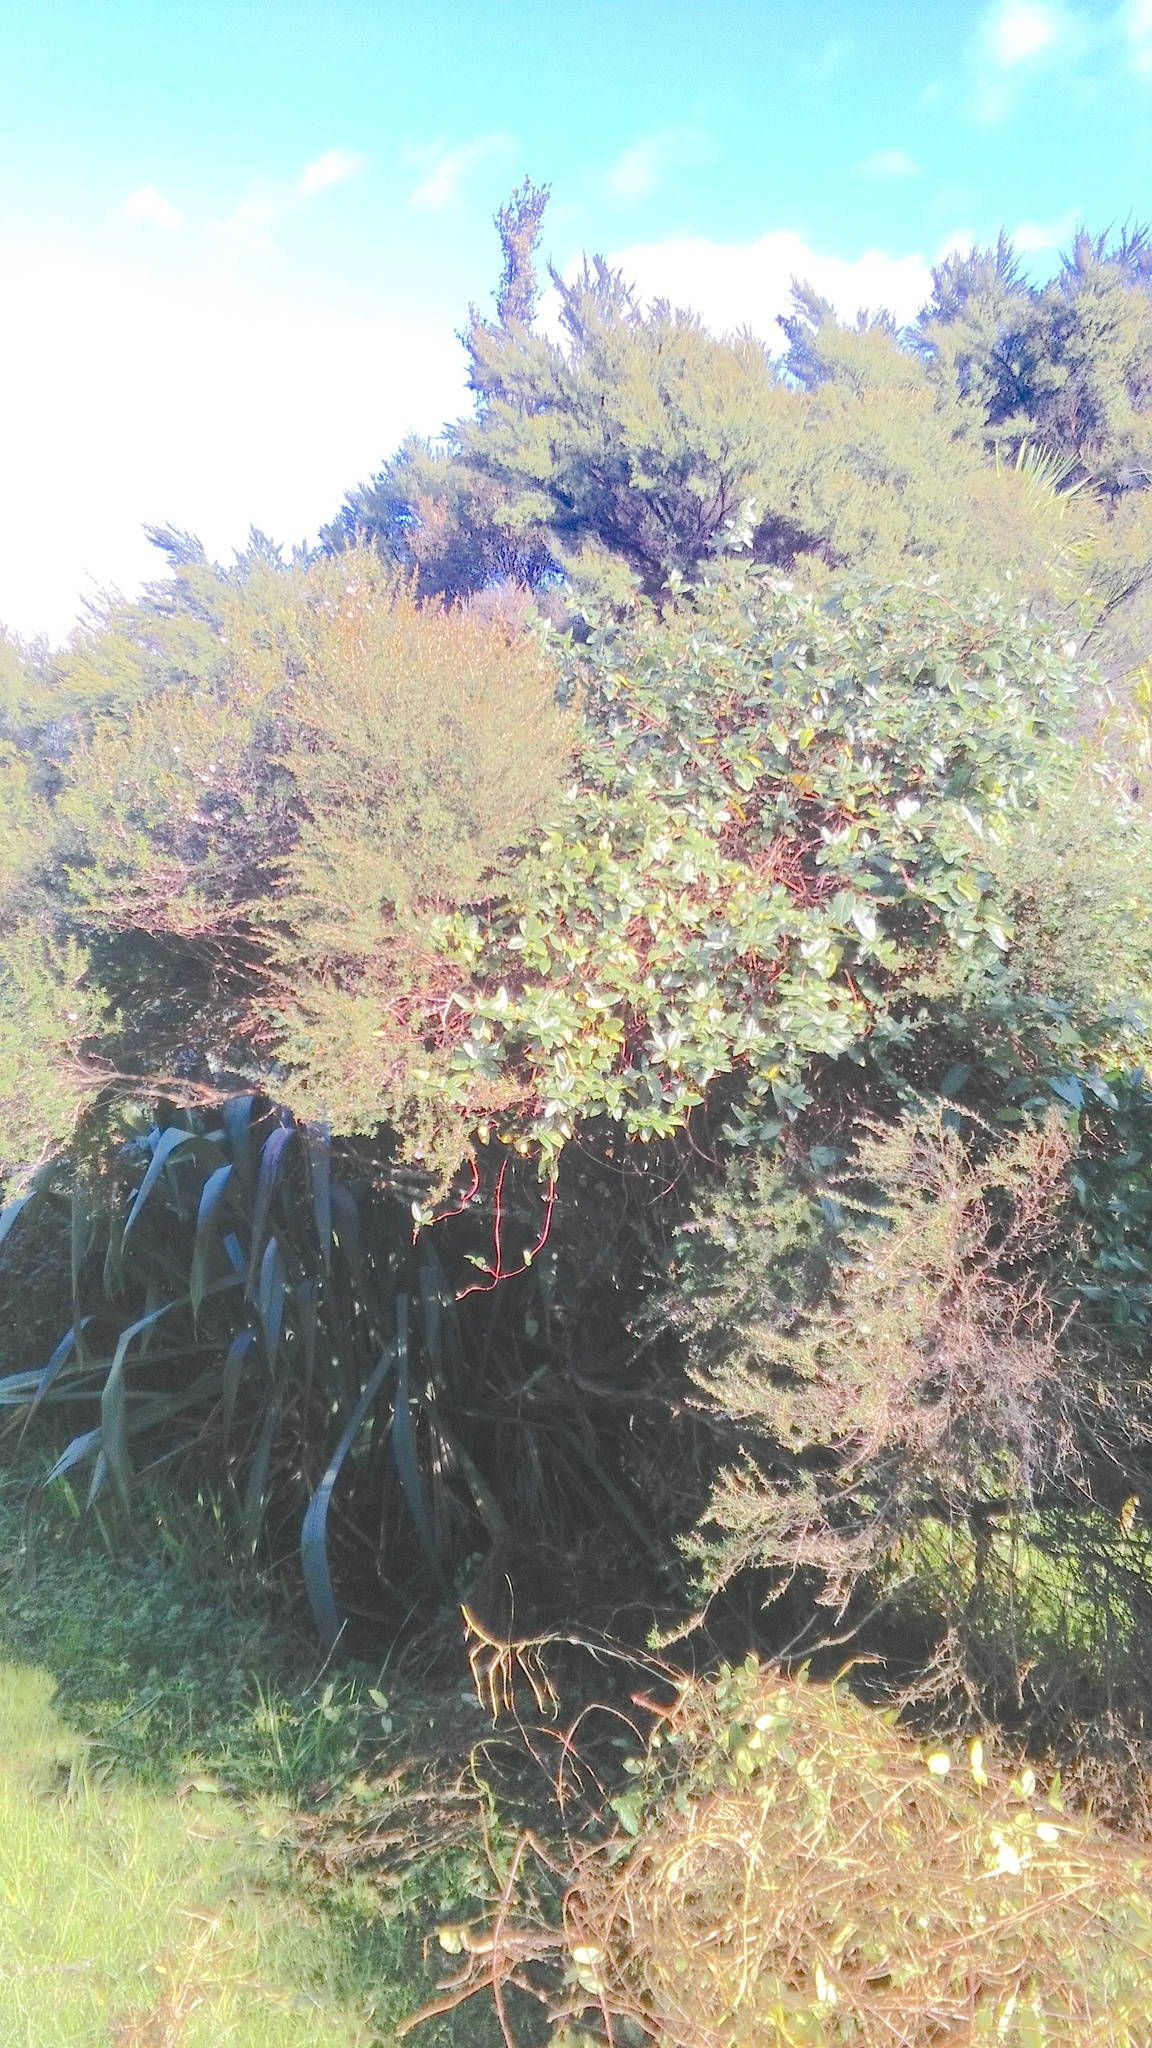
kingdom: Plantae
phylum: Tracheophyta
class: Magnoliopsida
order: Dipsacales
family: Caprifoliaceae
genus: Lonicera
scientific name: Lonicera japonica
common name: Japanese honeysuckle
